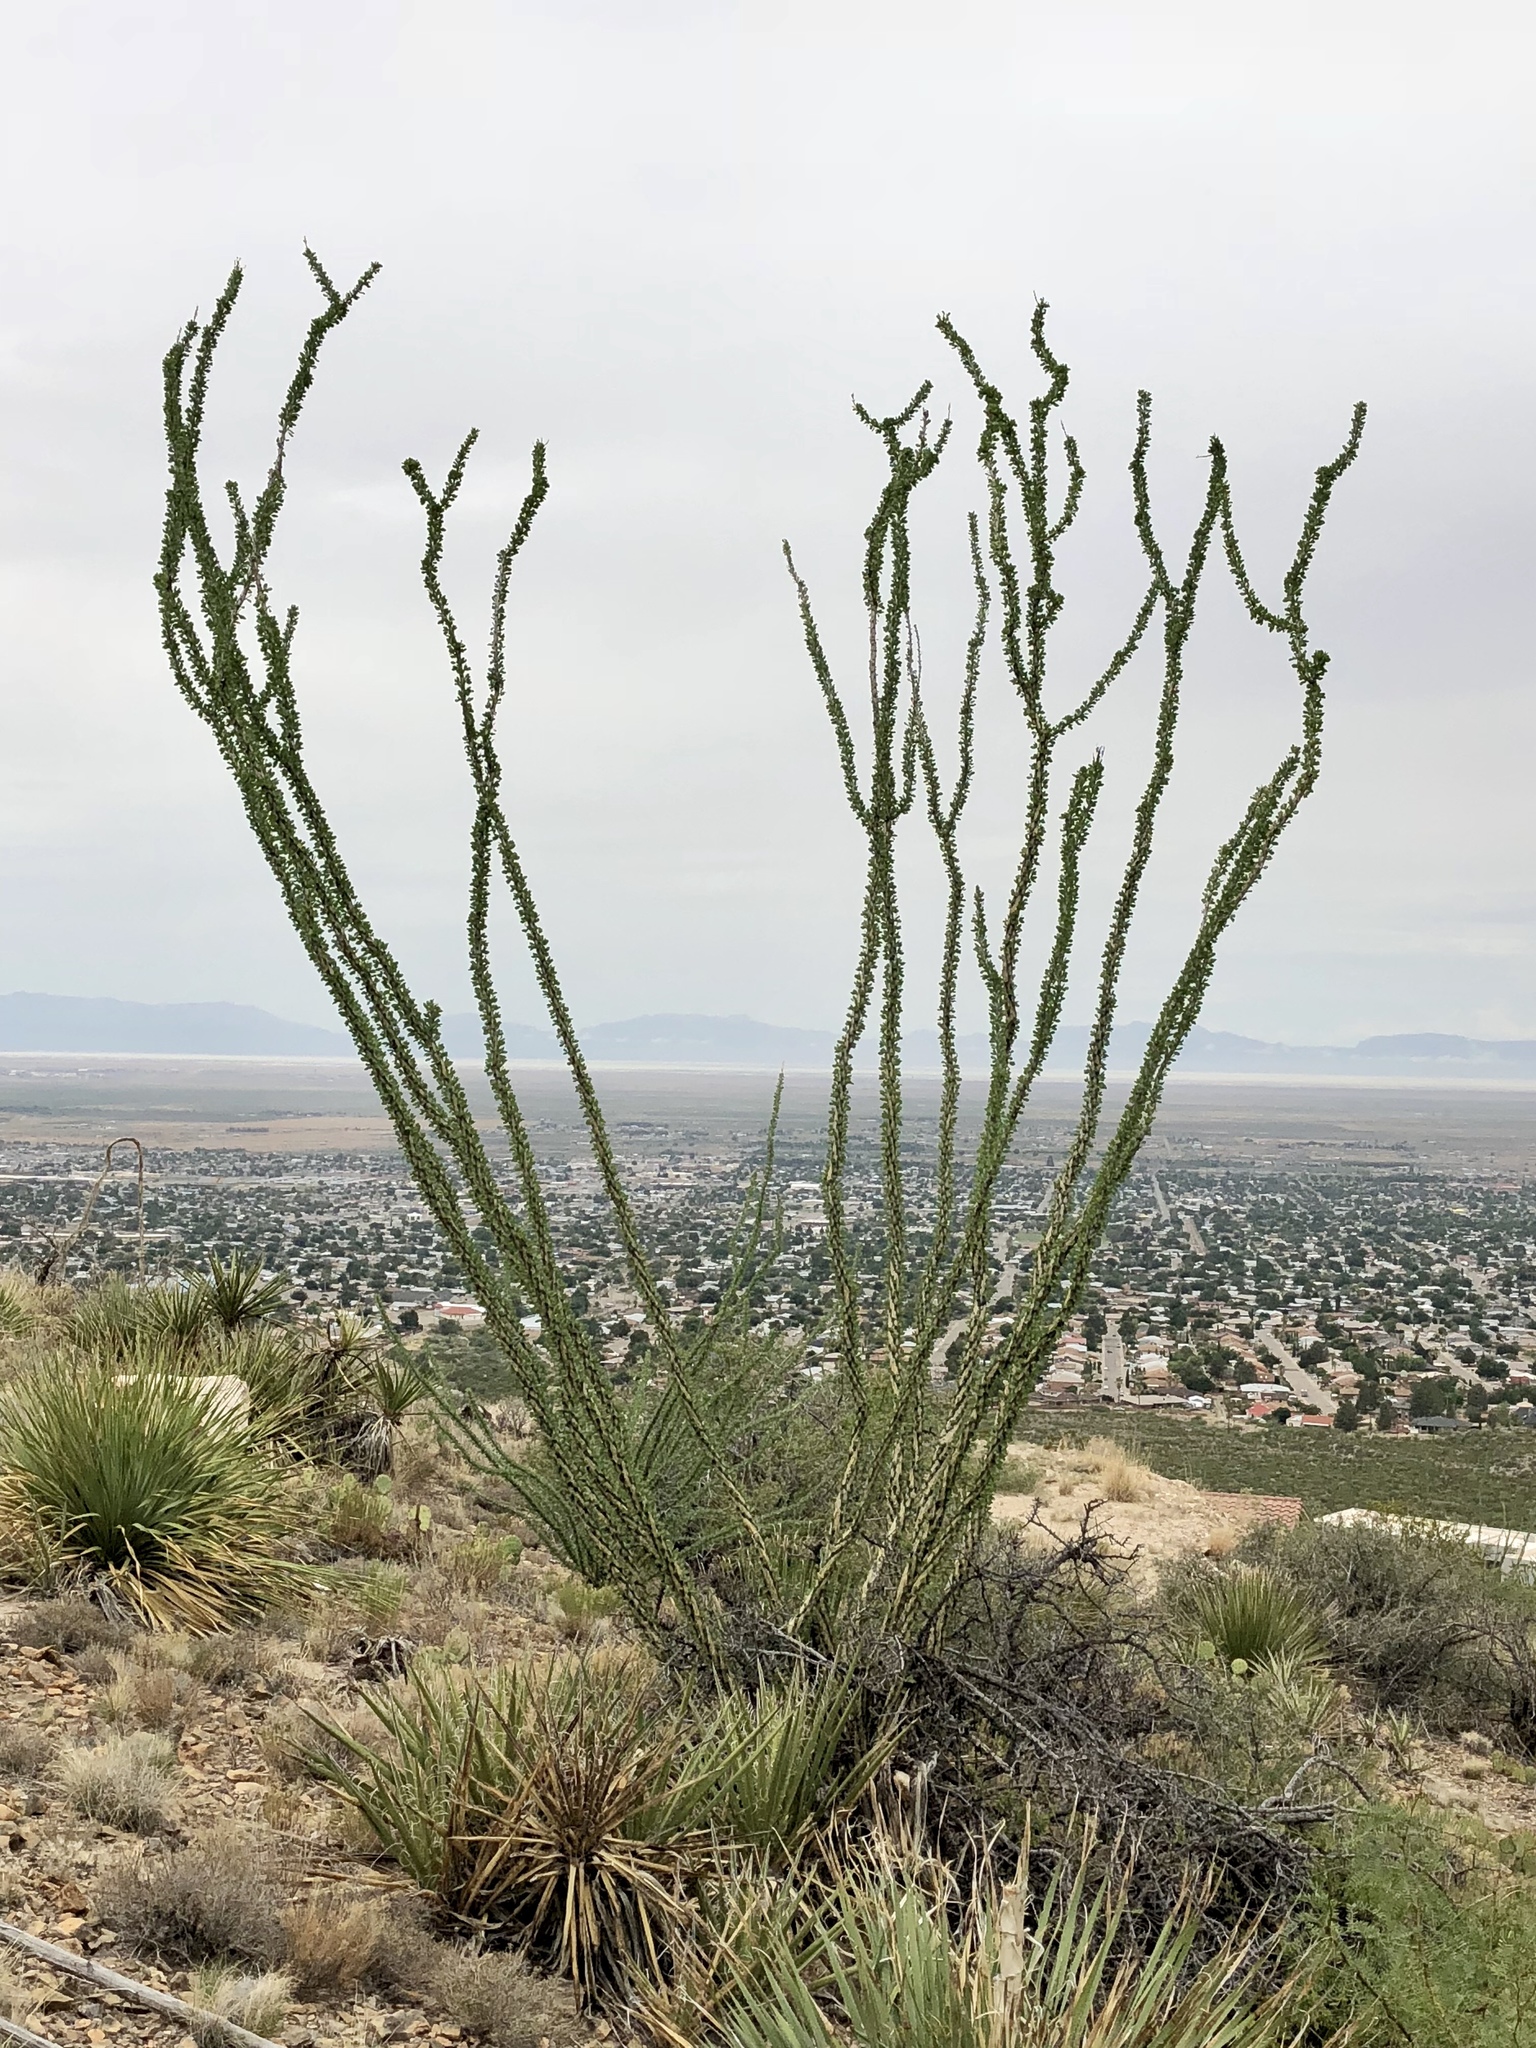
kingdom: Plantae
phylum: Tracheophyta
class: Magnoliopsida
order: Ericales
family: Fouquieriaceae
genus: Fouquieria
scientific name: Fouquieria splendens
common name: Vine-cactus
